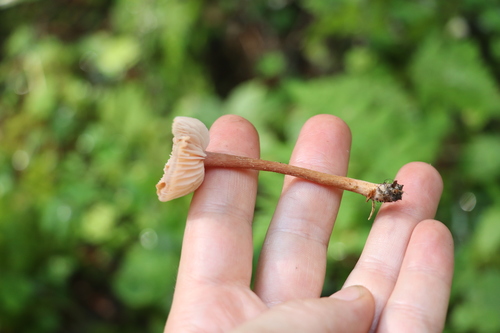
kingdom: Fungi
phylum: Basidiomycota
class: Agaricomycetes
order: Agaricales
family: Hydnangiaceae
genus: Laccaria
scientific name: Laccaria proxima
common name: Scurfy deceiver
